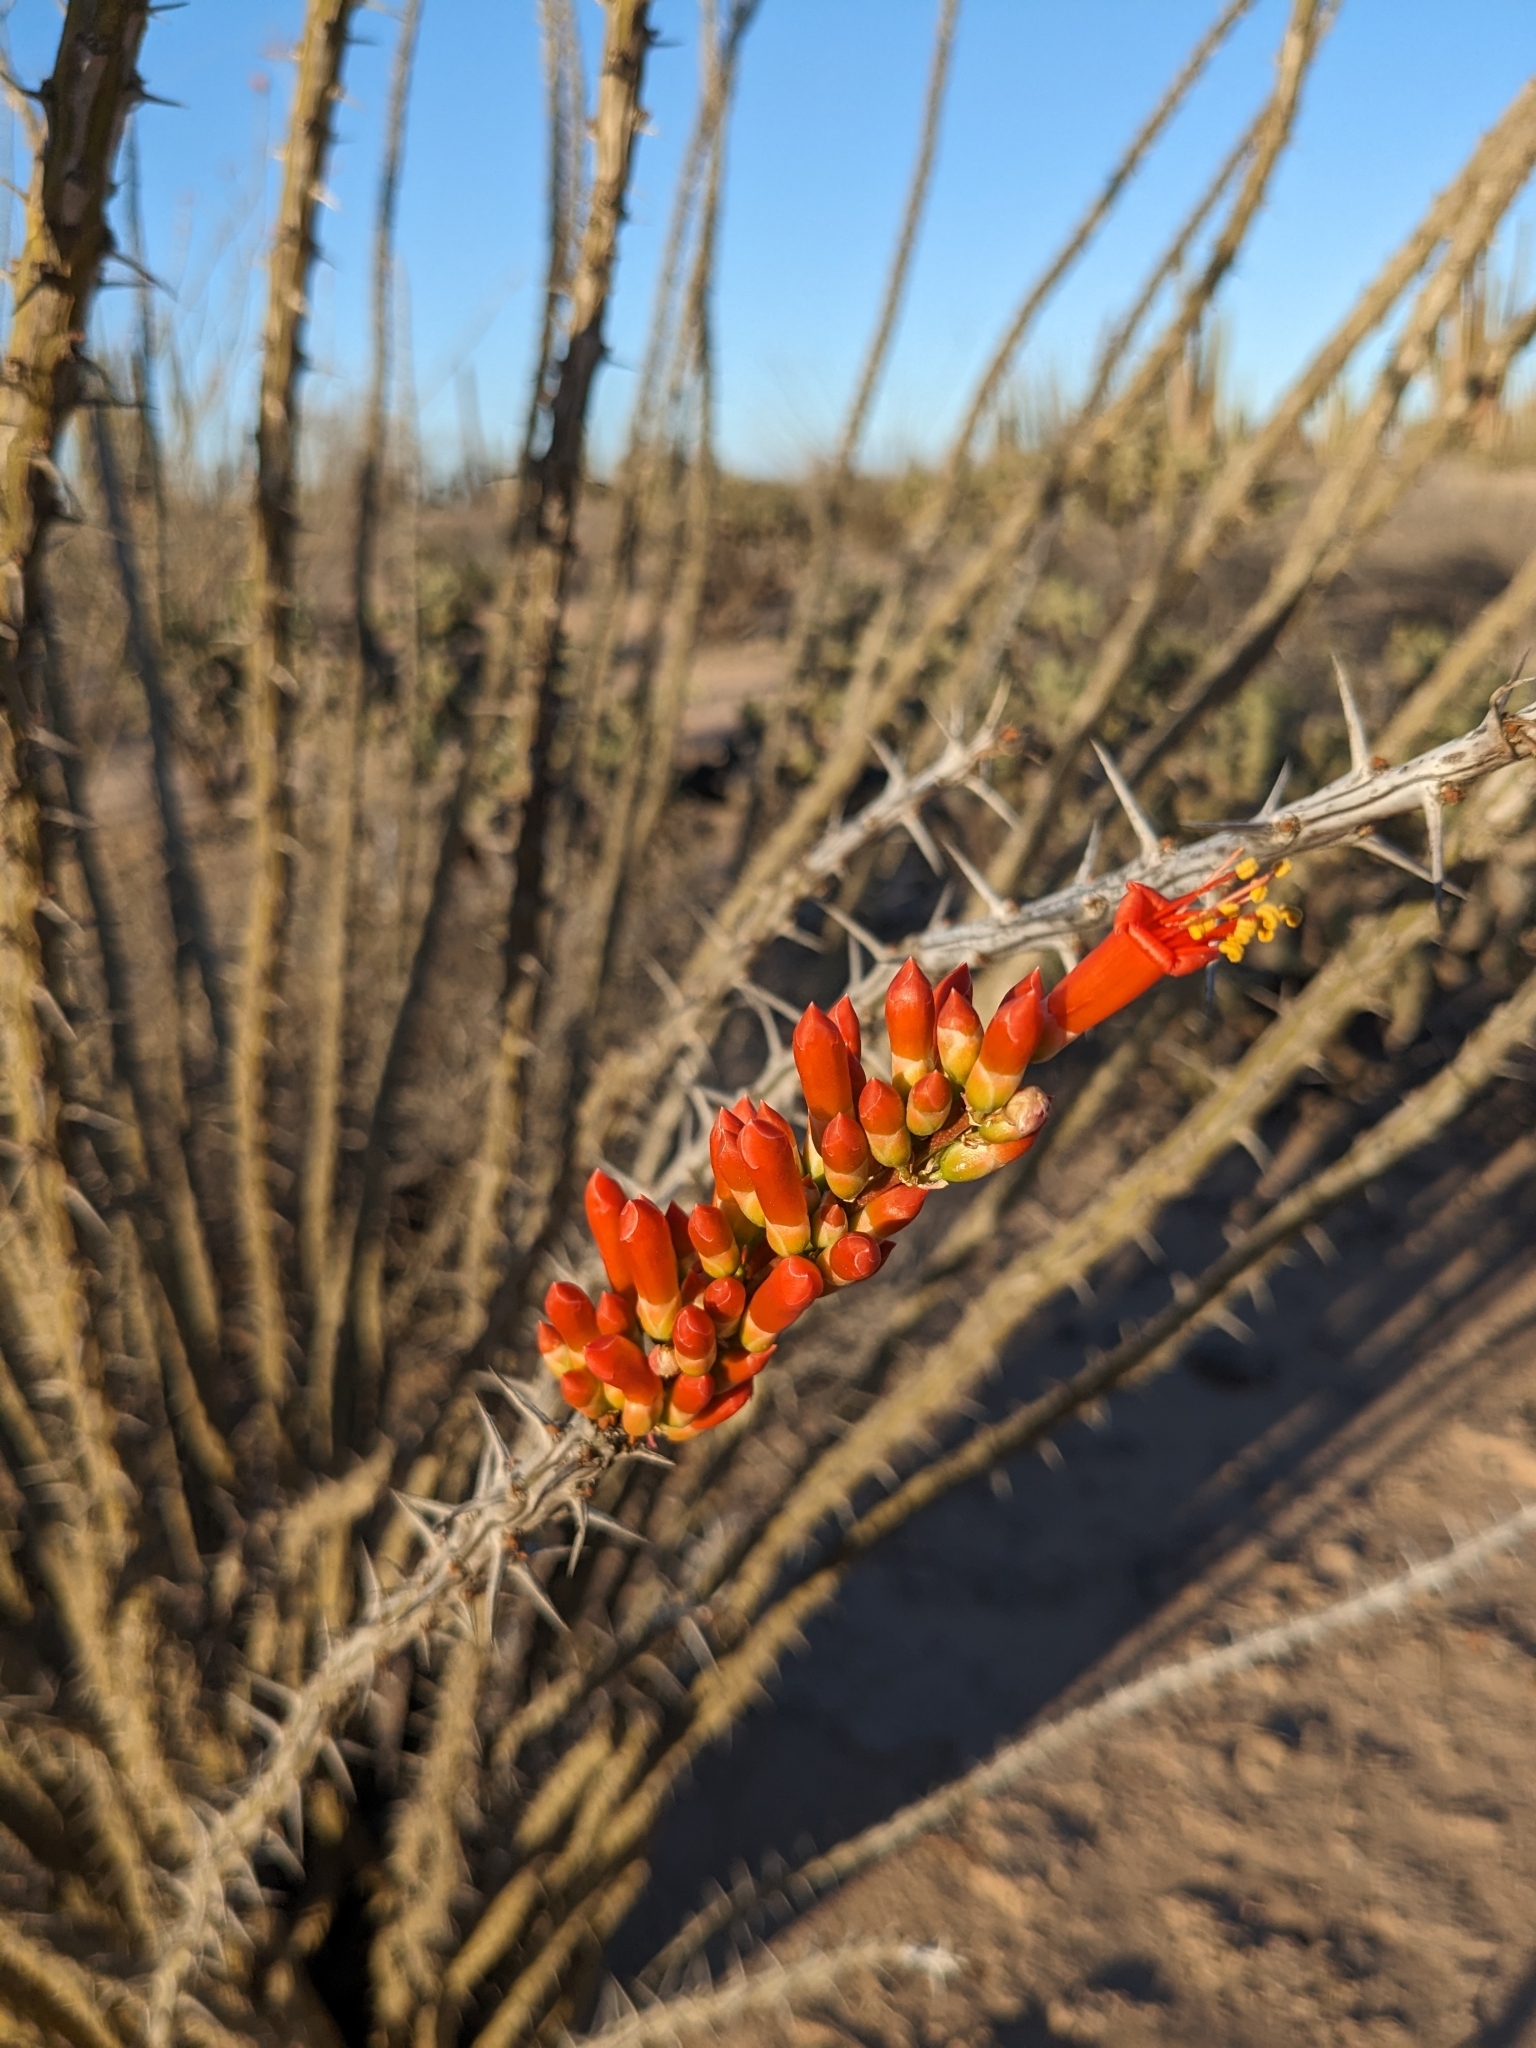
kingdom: Plantae
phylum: Tracheophyta
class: Magnoliopsida
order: Ericales
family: Fouquieriaceae
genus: Fouquieria
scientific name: Fouquieria splendens
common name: Vine-cactus
